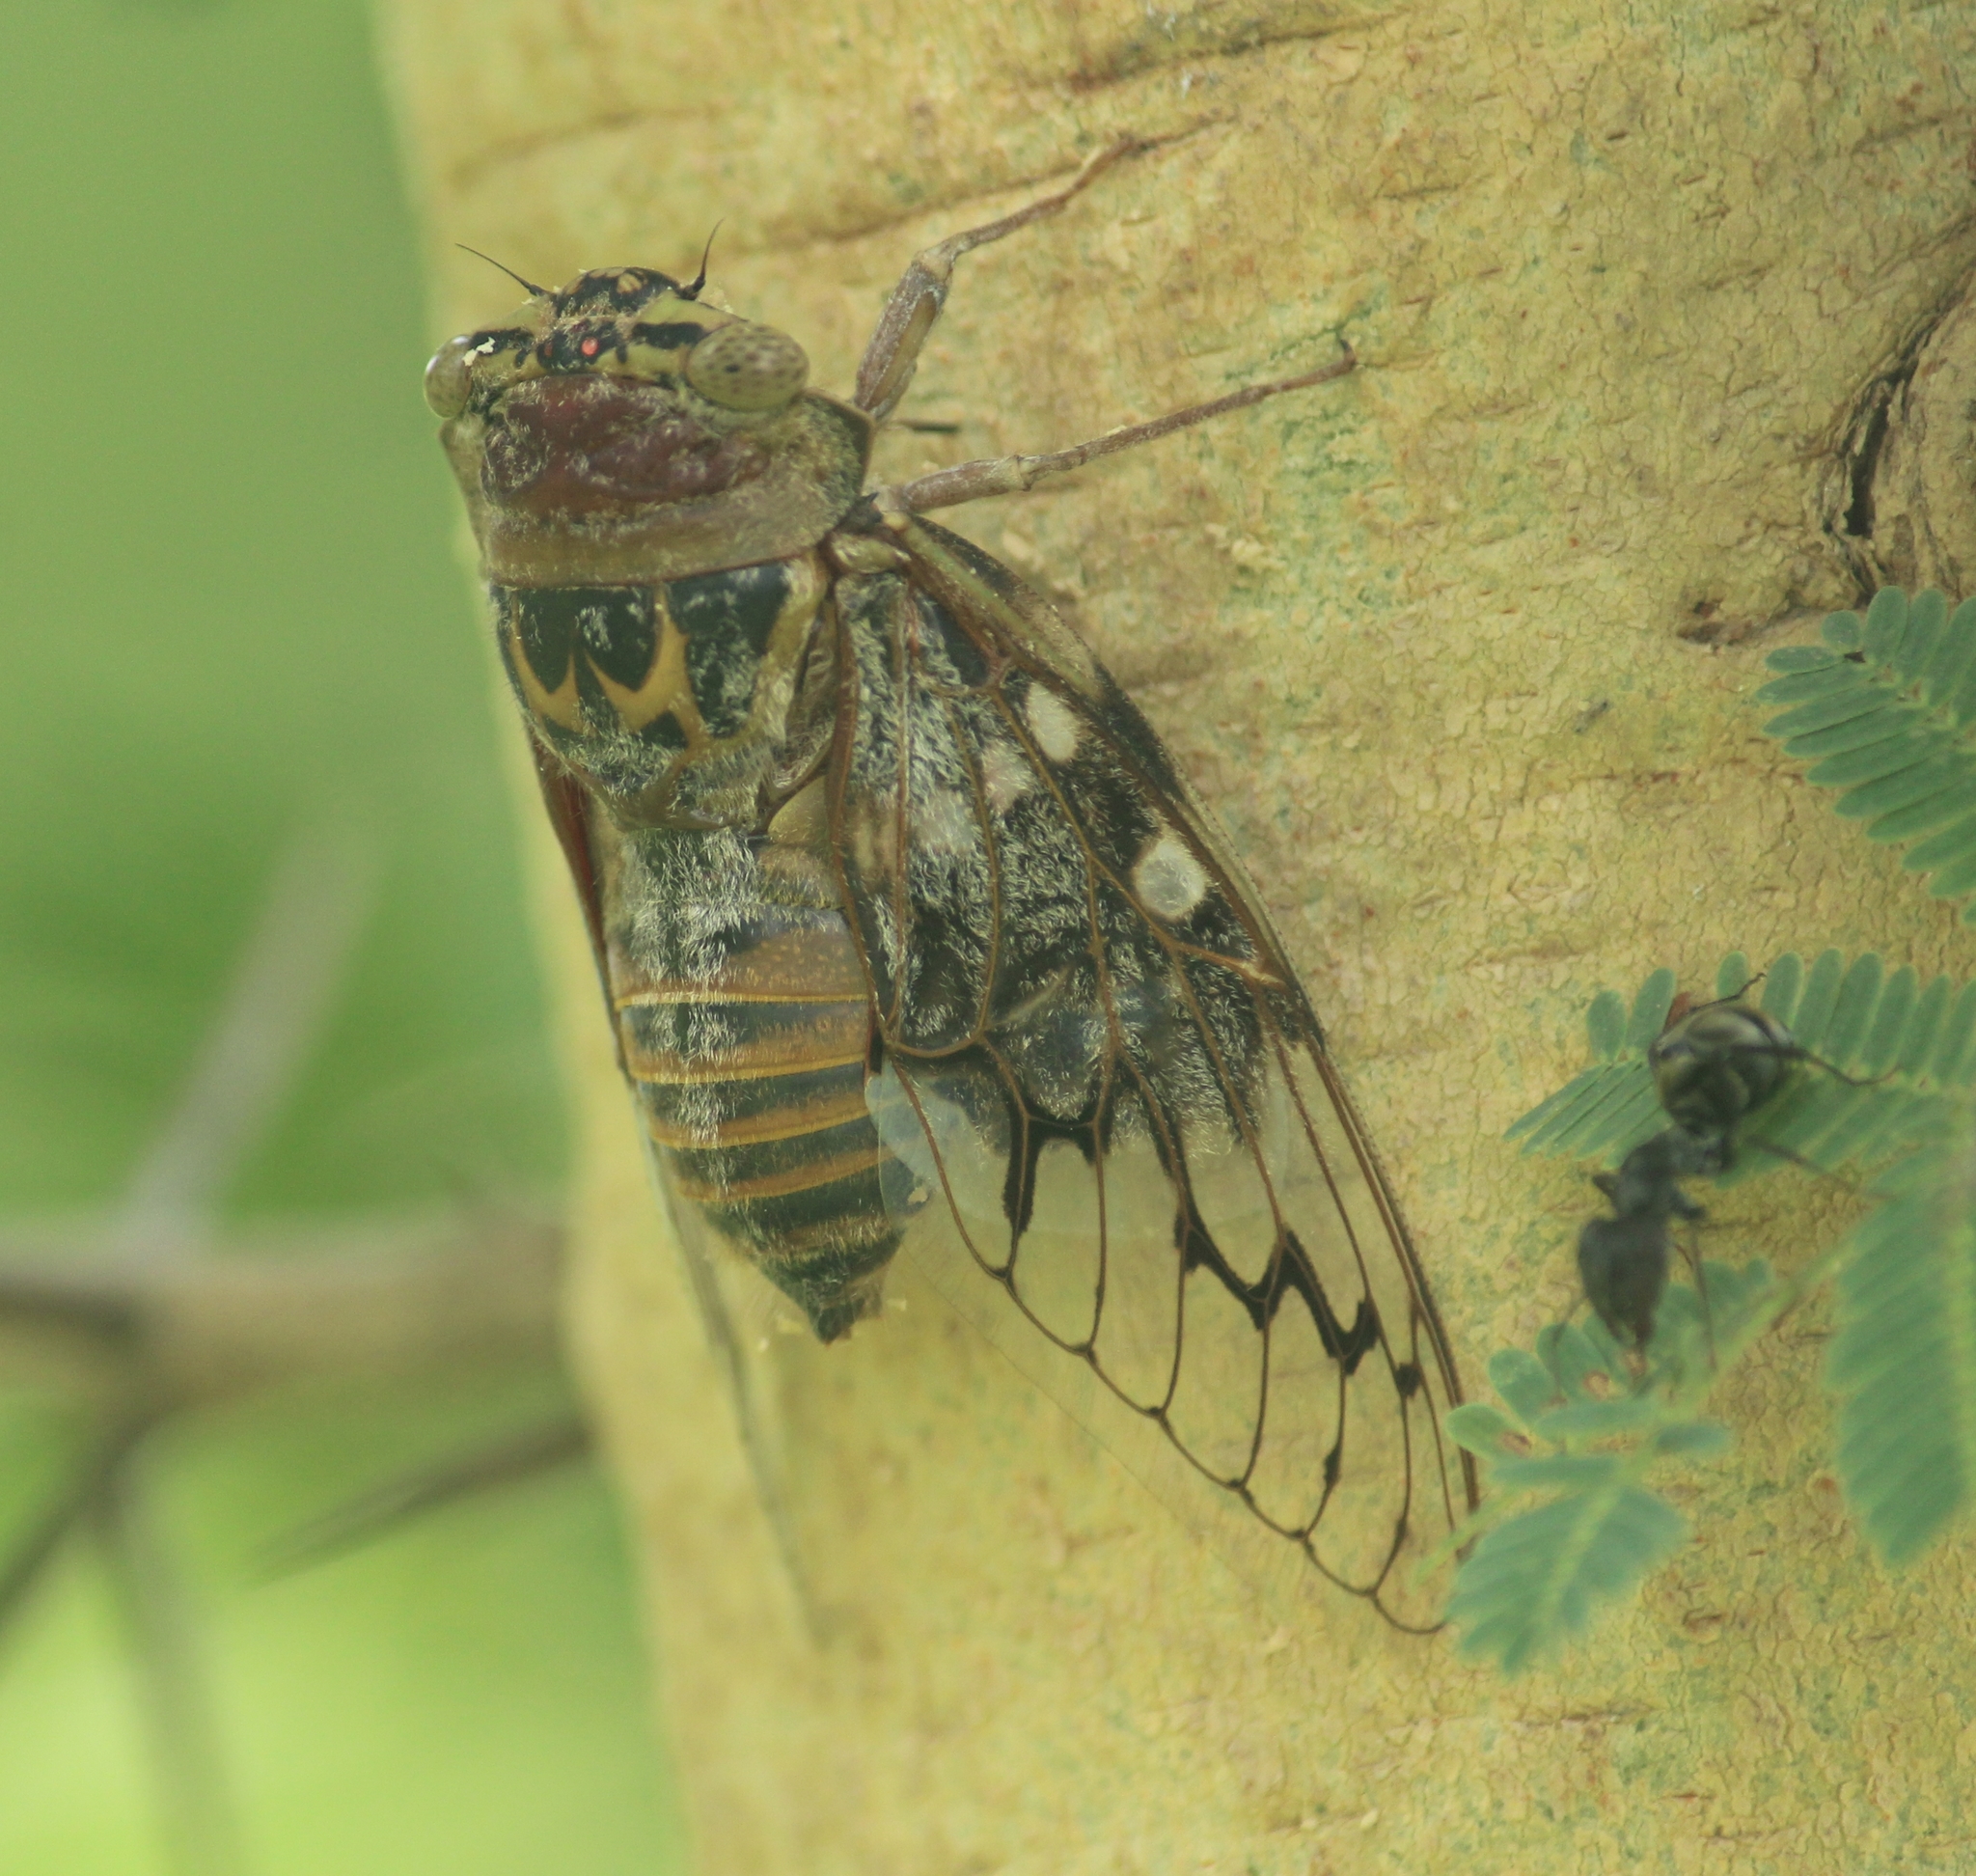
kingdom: Animalia
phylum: Arthropoda
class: Insecta
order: Hemiptera
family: Cicadidae
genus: Platypleura
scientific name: Platypleura octoguttata
